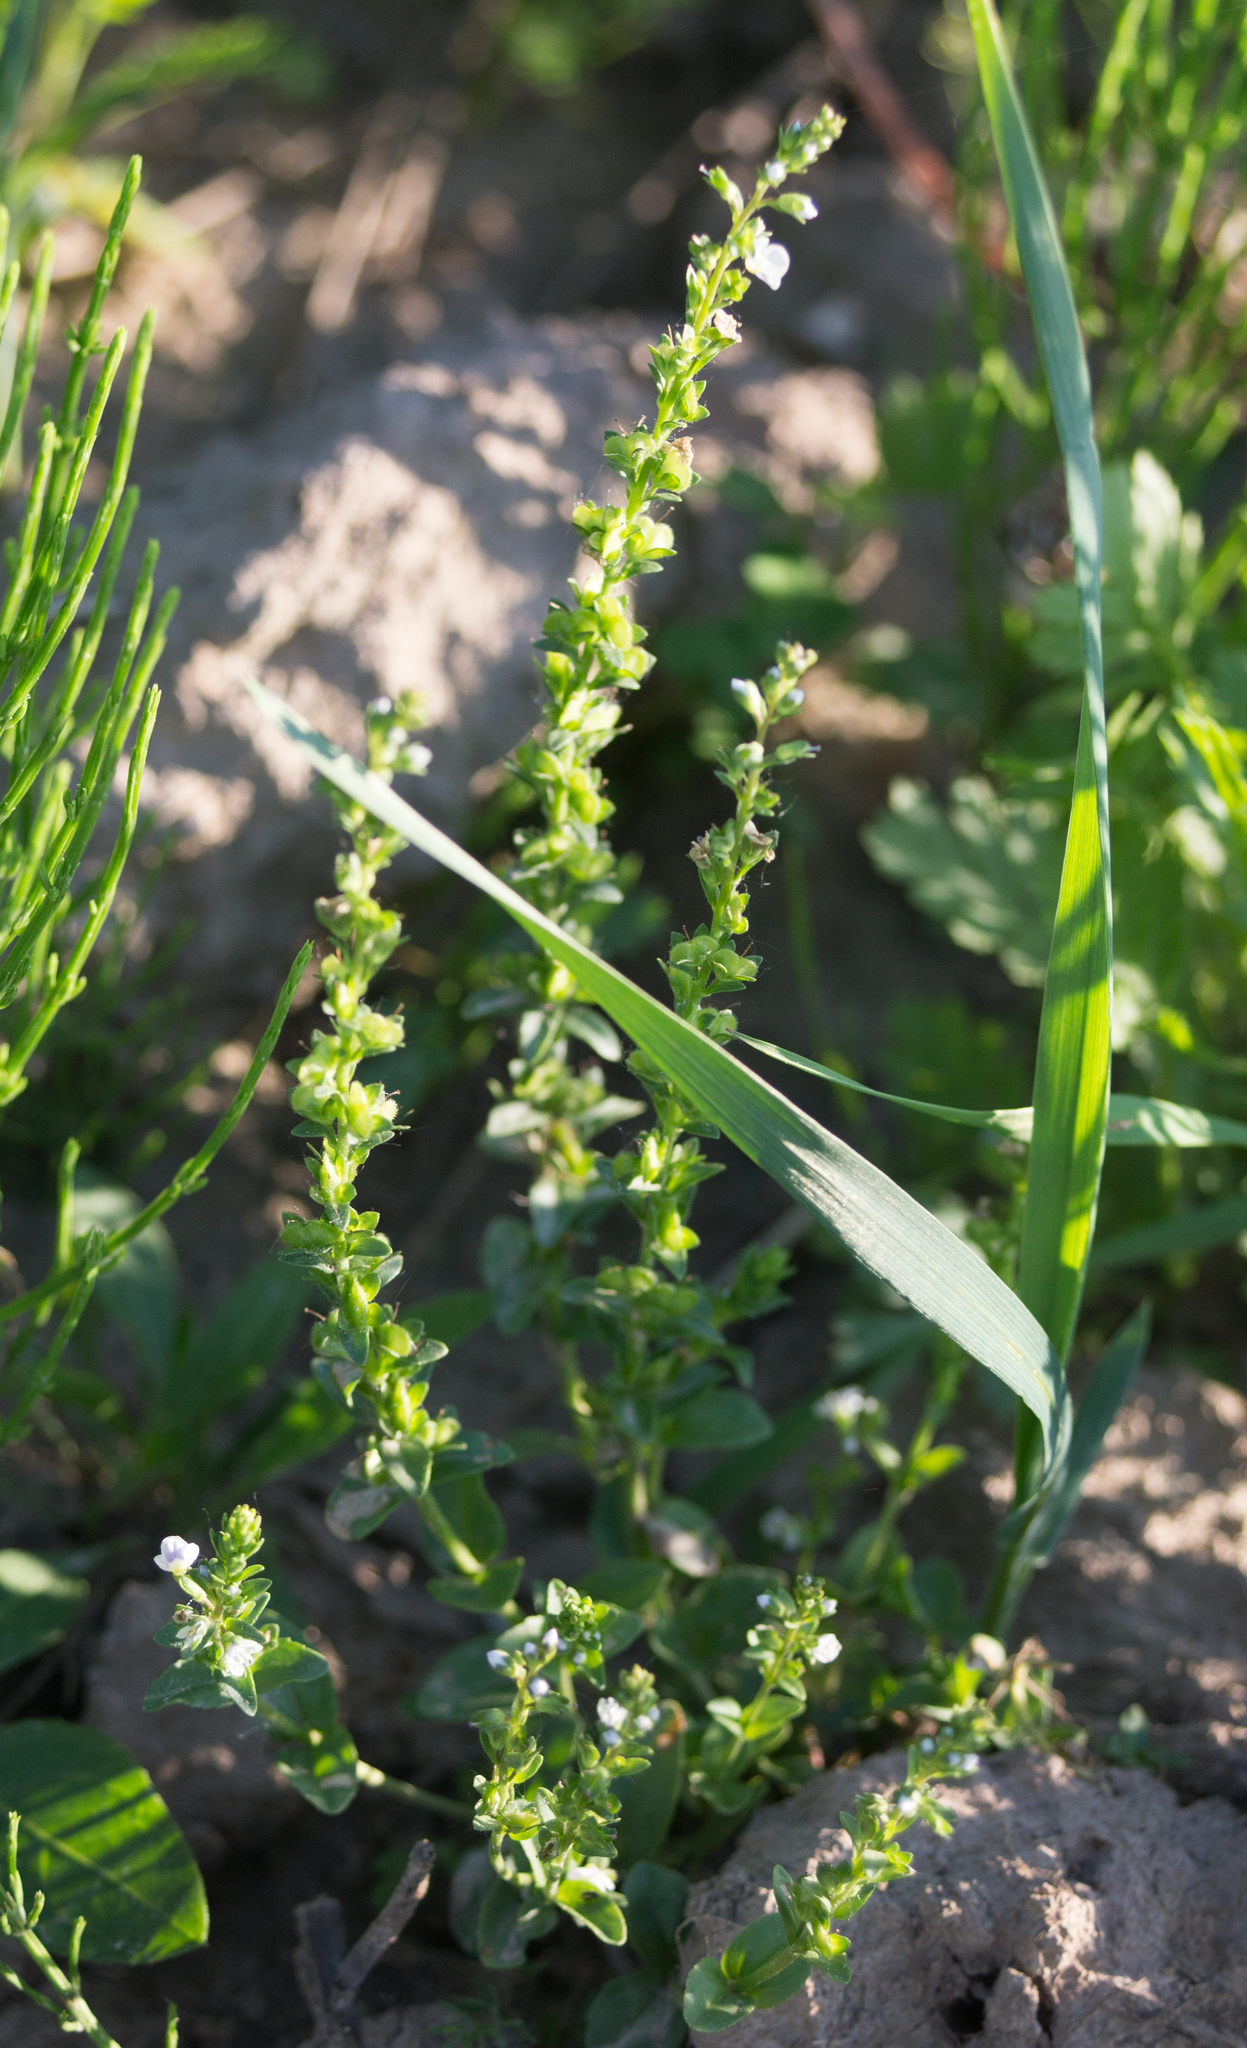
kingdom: Plantae
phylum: Tracheophyta
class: Magnoliopsida
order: Lamiales
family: Plantaginaceae
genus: Veronica
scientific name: Veronica serpyllifolia
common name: Thyme-leaved speedwell
